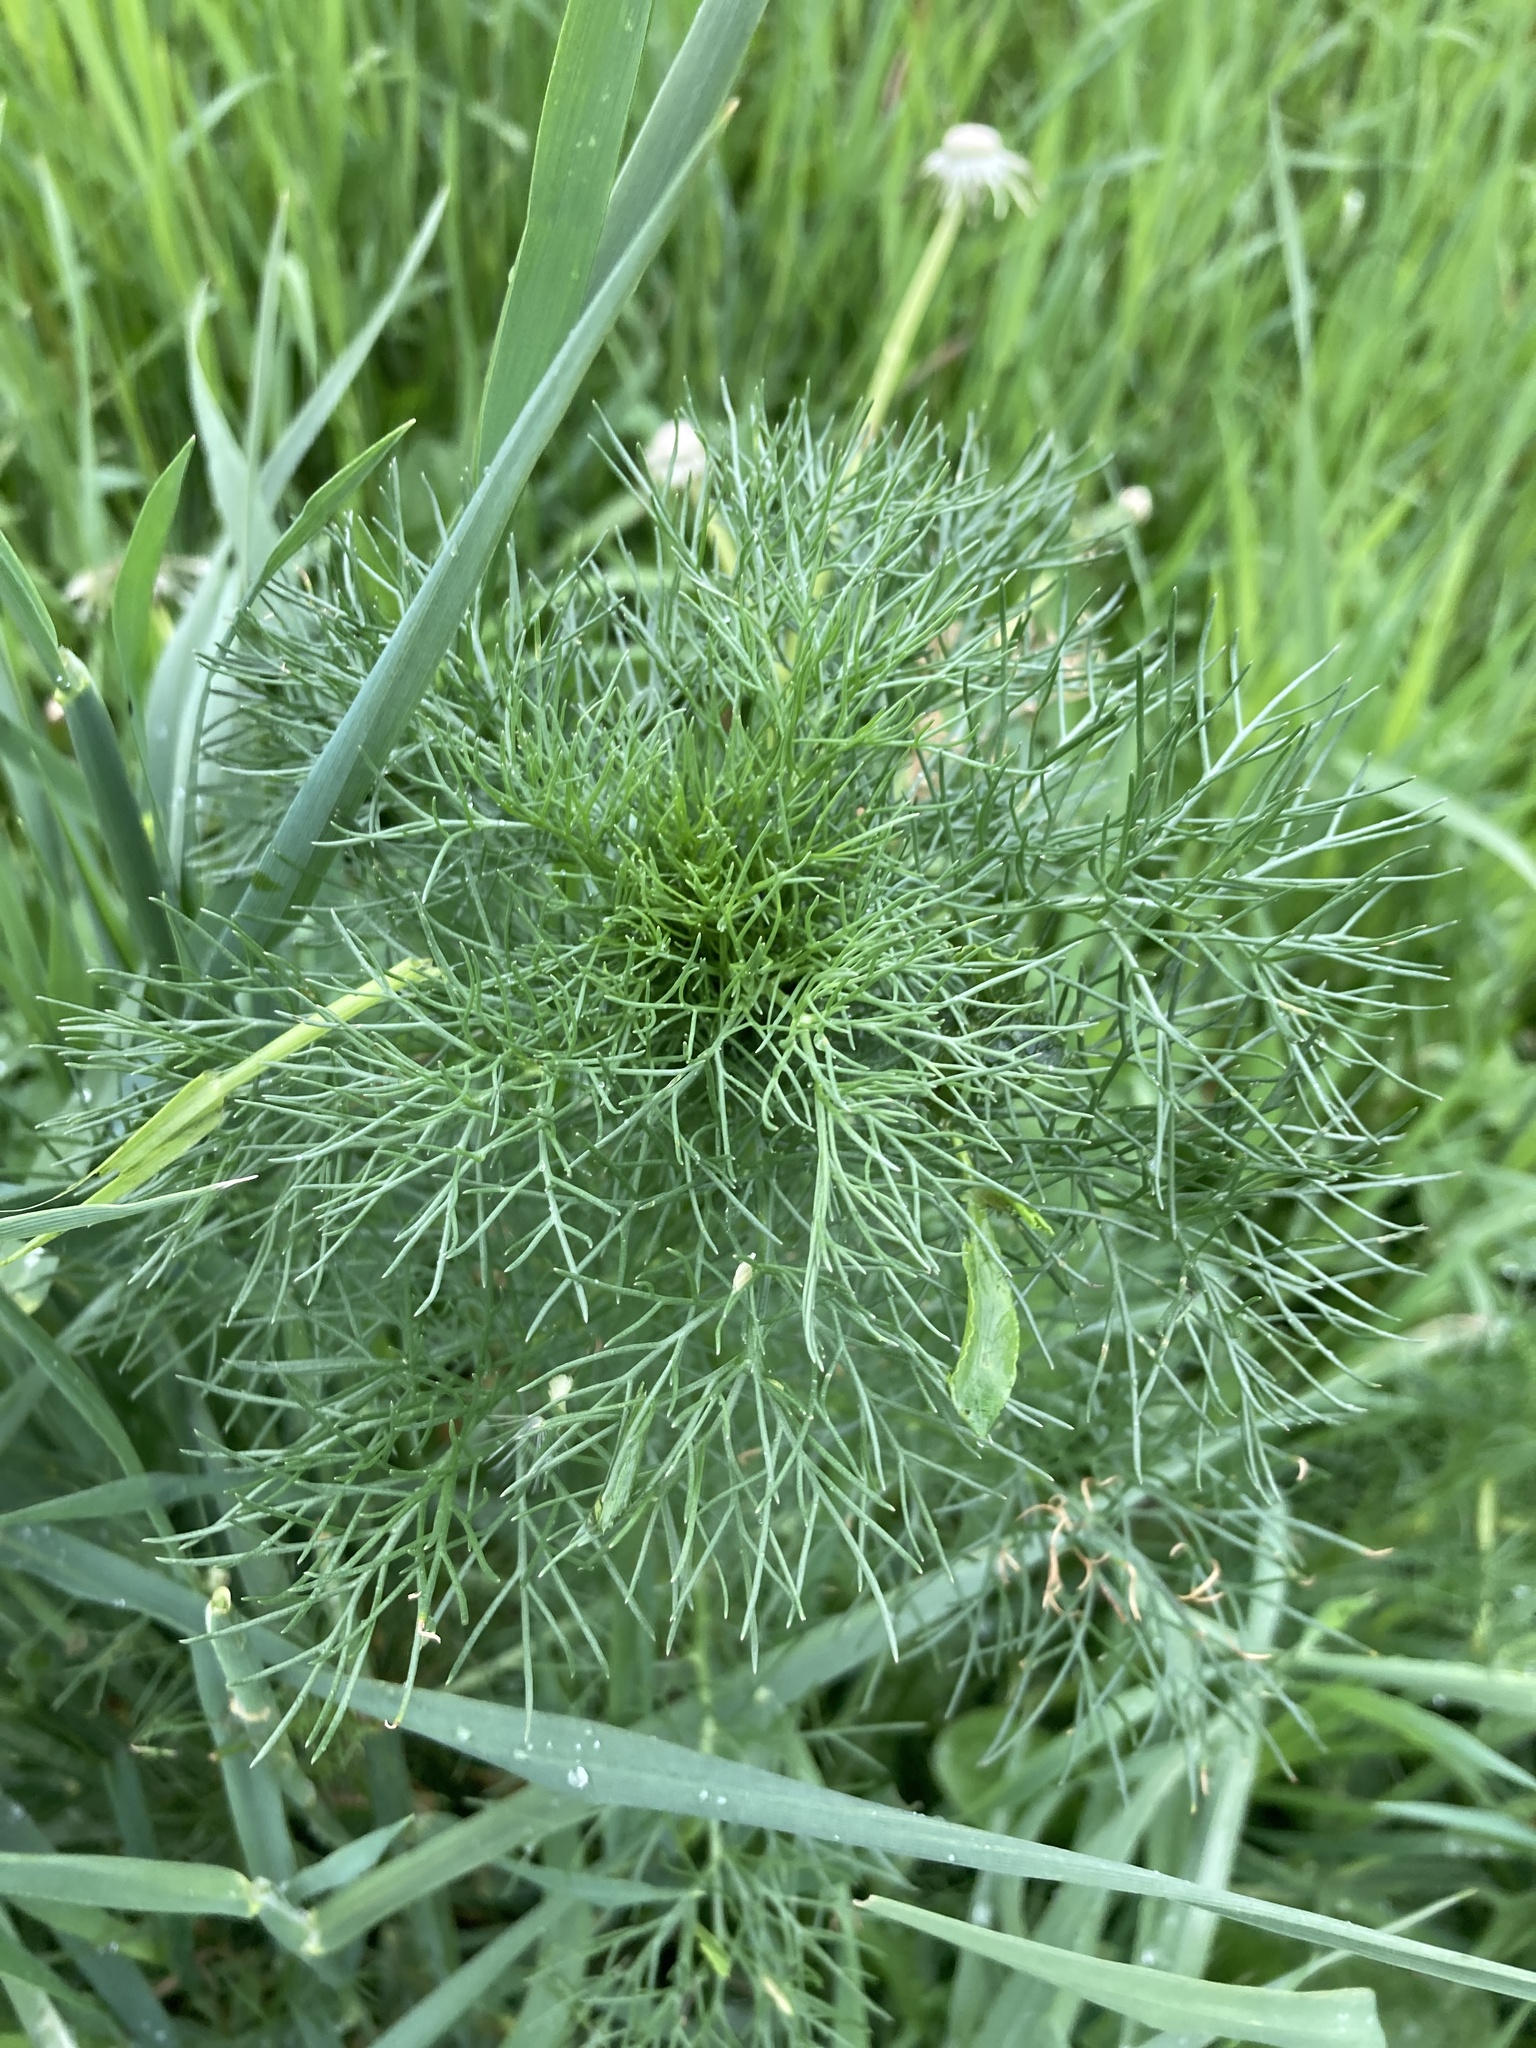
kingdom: Plantae
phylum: Tracheophyta
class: Magnoliopsida
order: Asterales
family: Asteraceae
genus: Tripleurospermum
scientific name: Tripleurospermum inodorum
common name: Scentless mayweed
